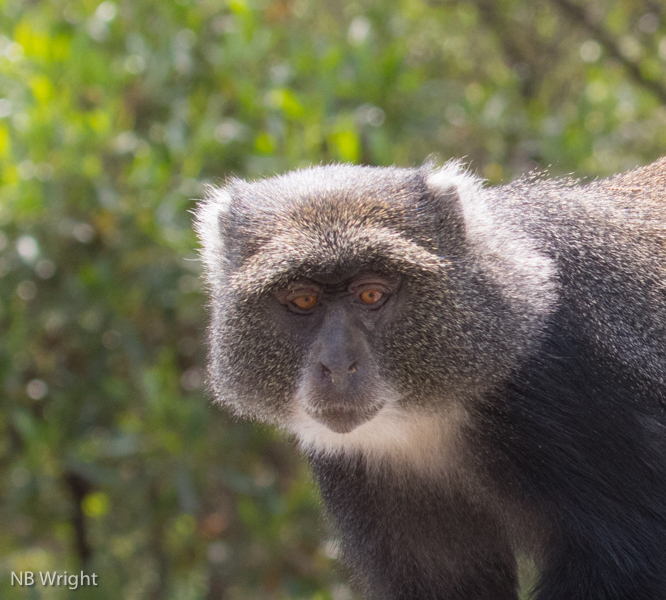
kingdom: Animalia
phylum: Chordata
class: Mammalia
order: Primates
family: Cercopithecidae
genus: Cercopithecus
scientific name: Cercopithecus mitis
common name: Blue monkey
